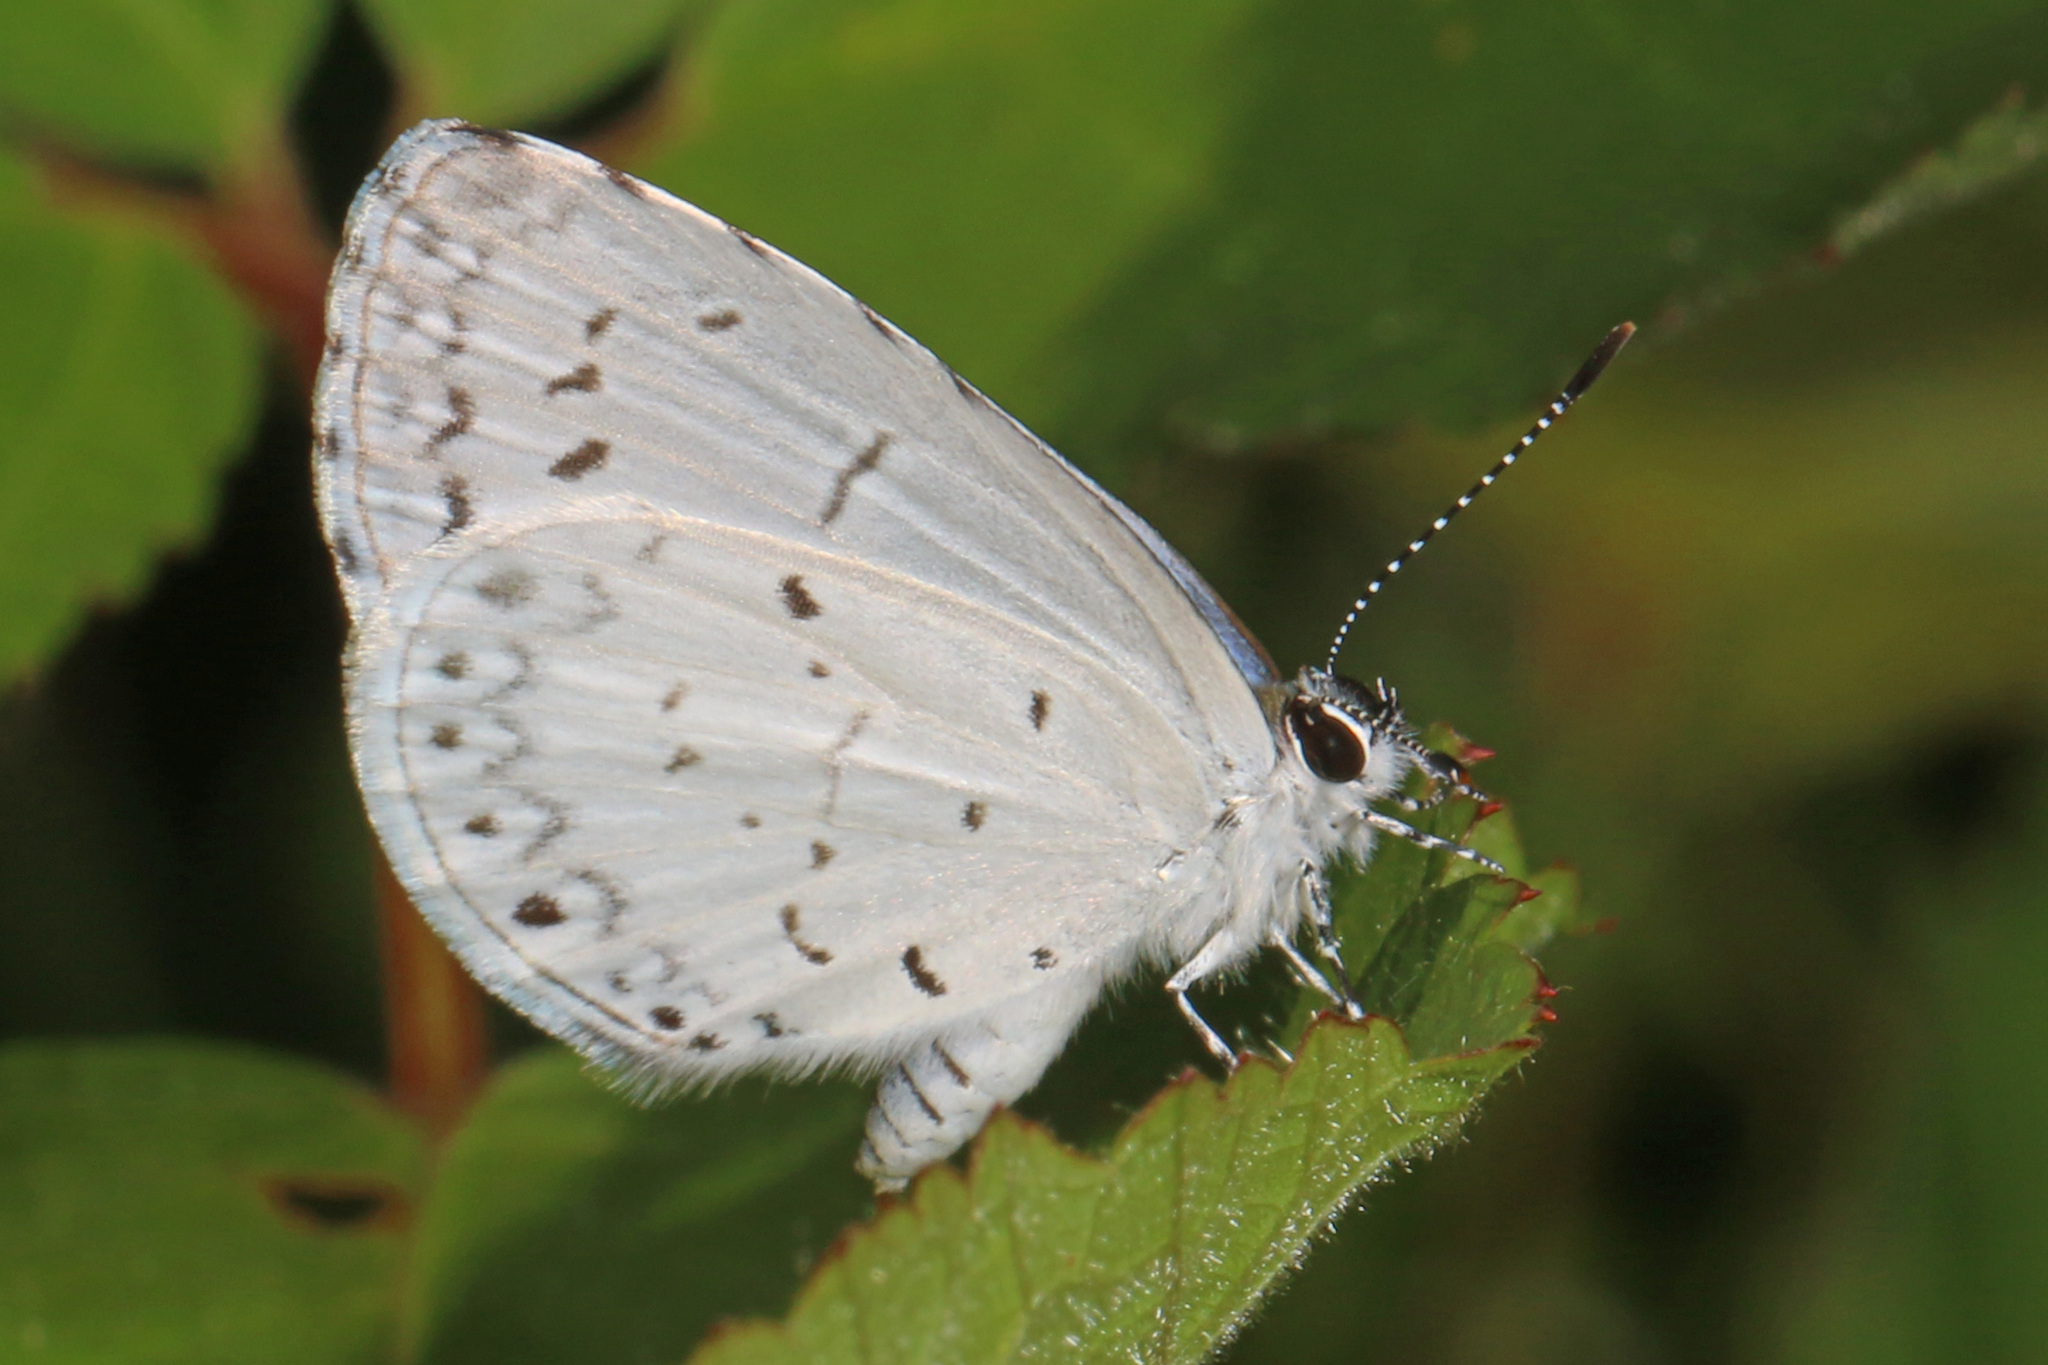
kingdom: Animalia
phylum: Arthropoda
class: Insecta
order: Lepidoptera
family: Lycaenidae
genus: Cyaniris
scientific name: Cyaniris neglecta
